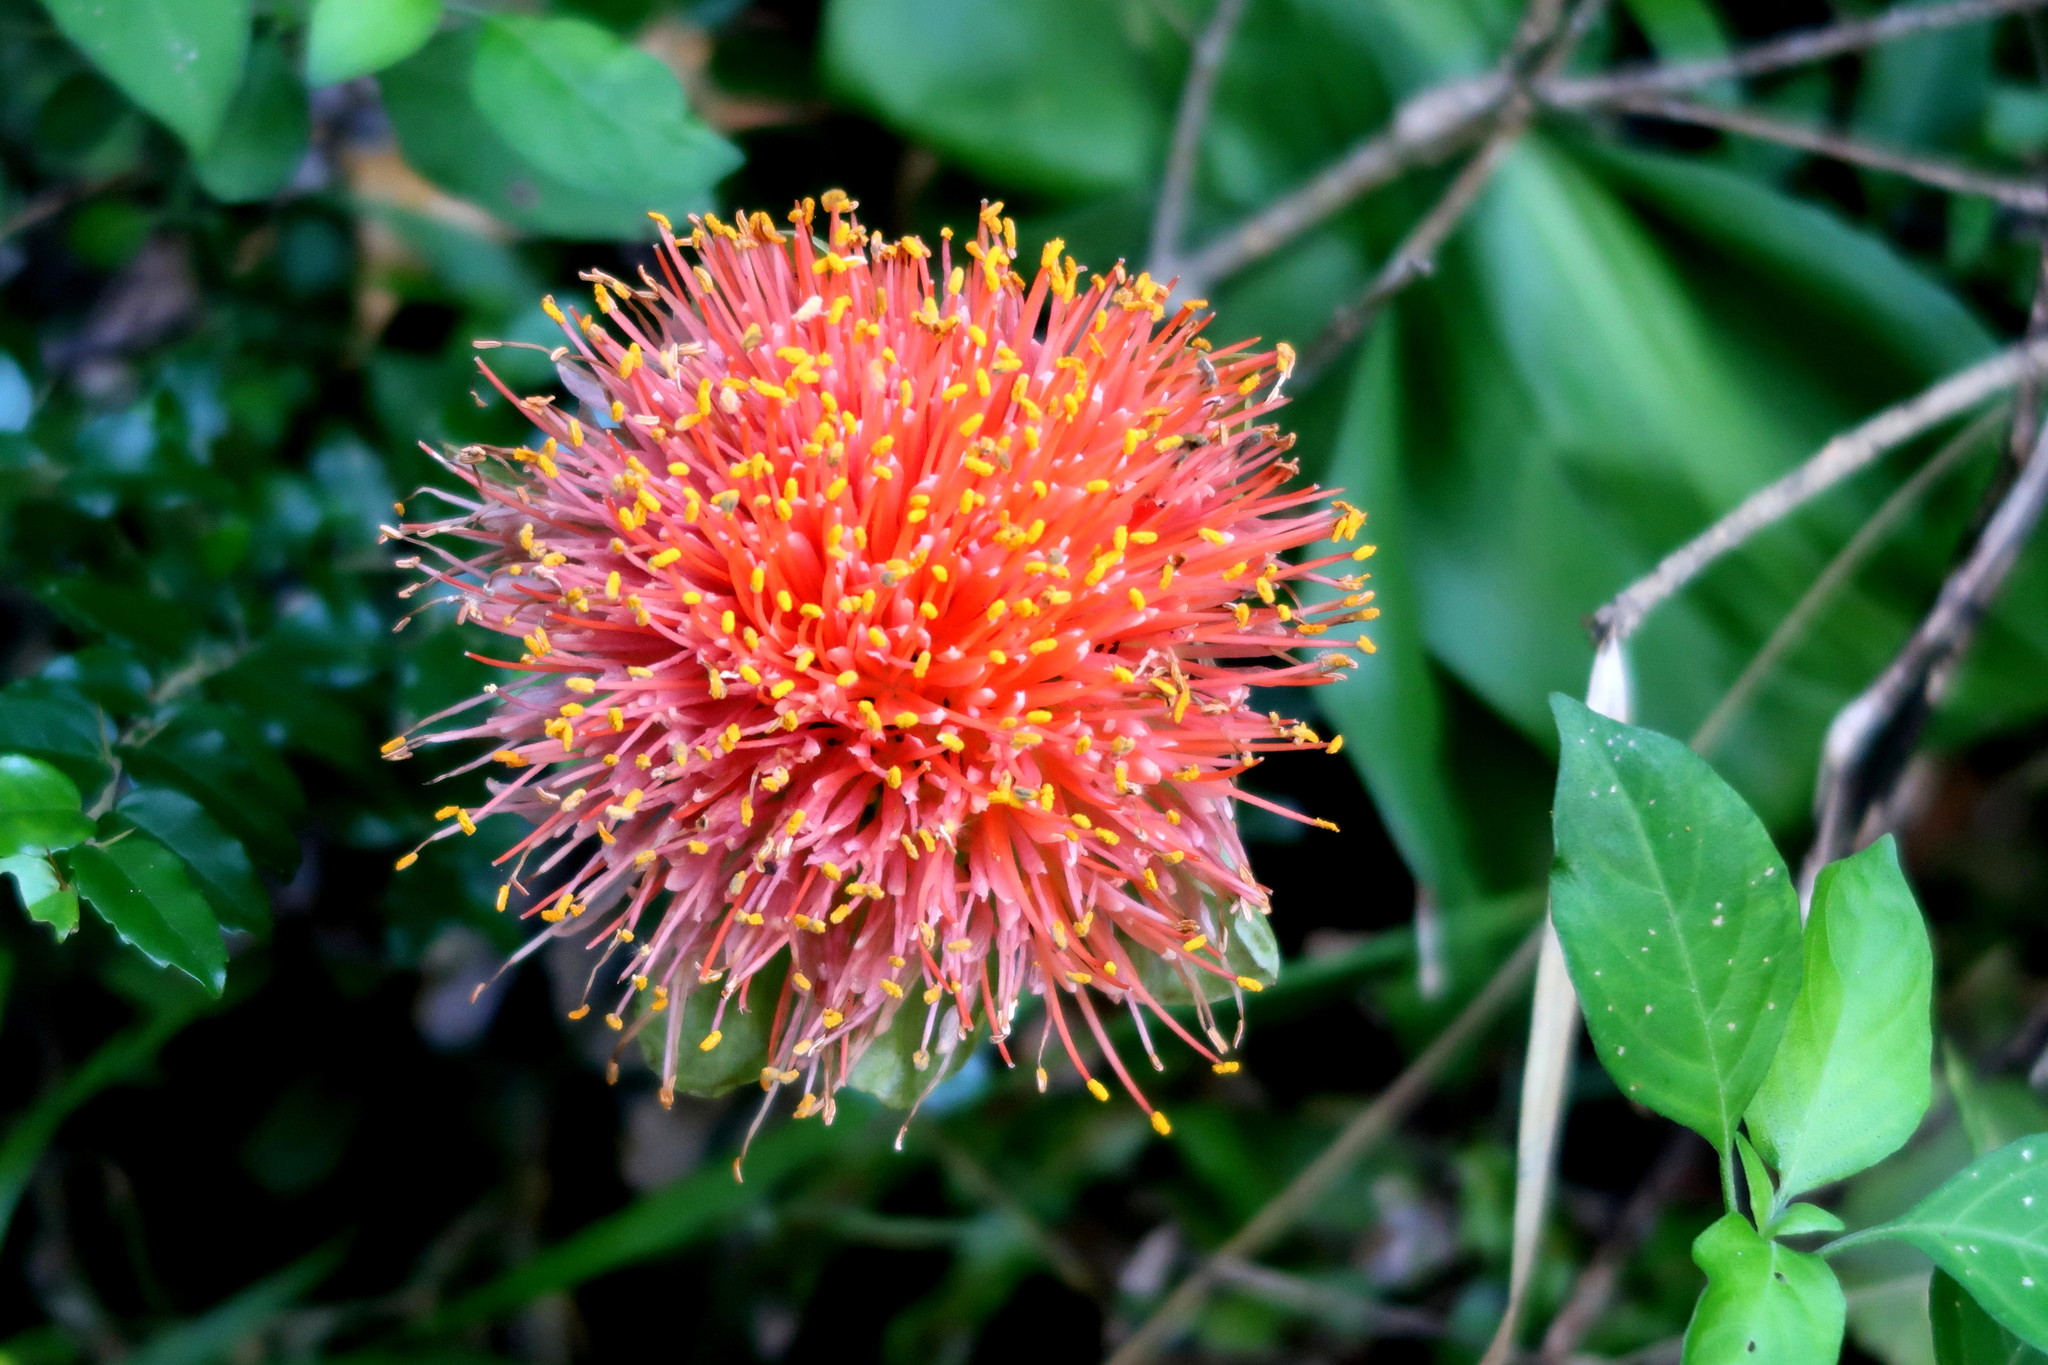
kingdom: Plantae
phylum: Tracheophyta
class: Liliopsida
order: Asparagales
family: Amaryllidaceae
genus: Scadoxus
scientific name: Scadoxus puniceus
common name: Royal-paintbrush
